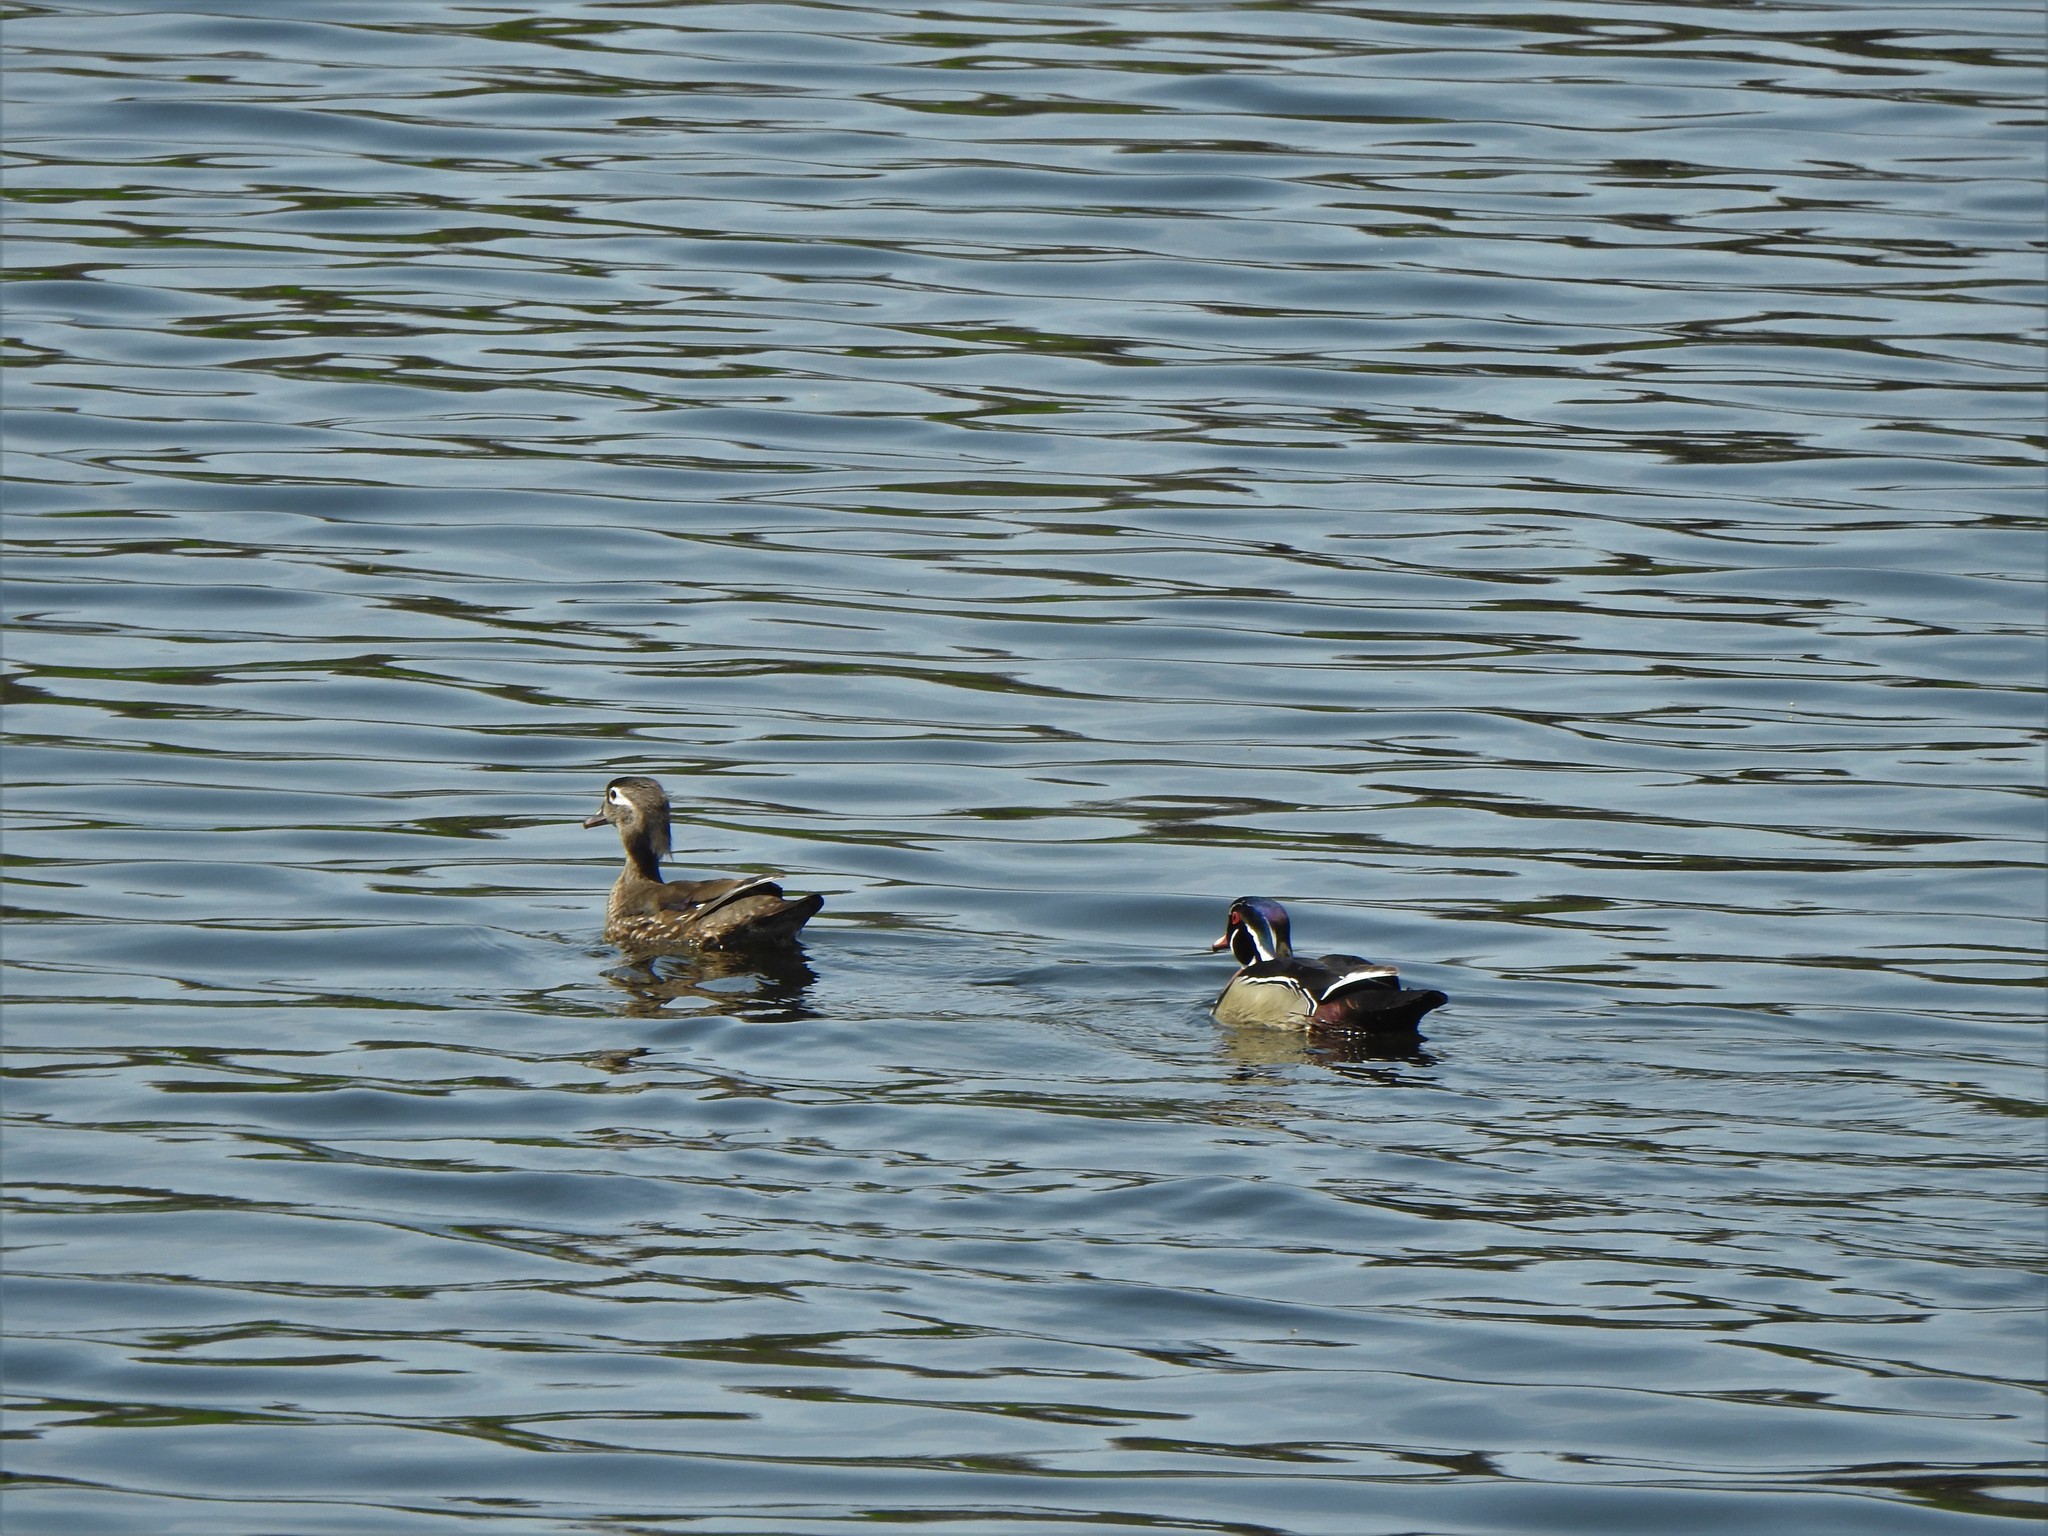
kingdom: Animalia
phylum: Chordata
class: Aves
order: Anseriformes
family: Anatidae
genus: Aix
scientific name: Aix sponsa
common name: Wood duck
